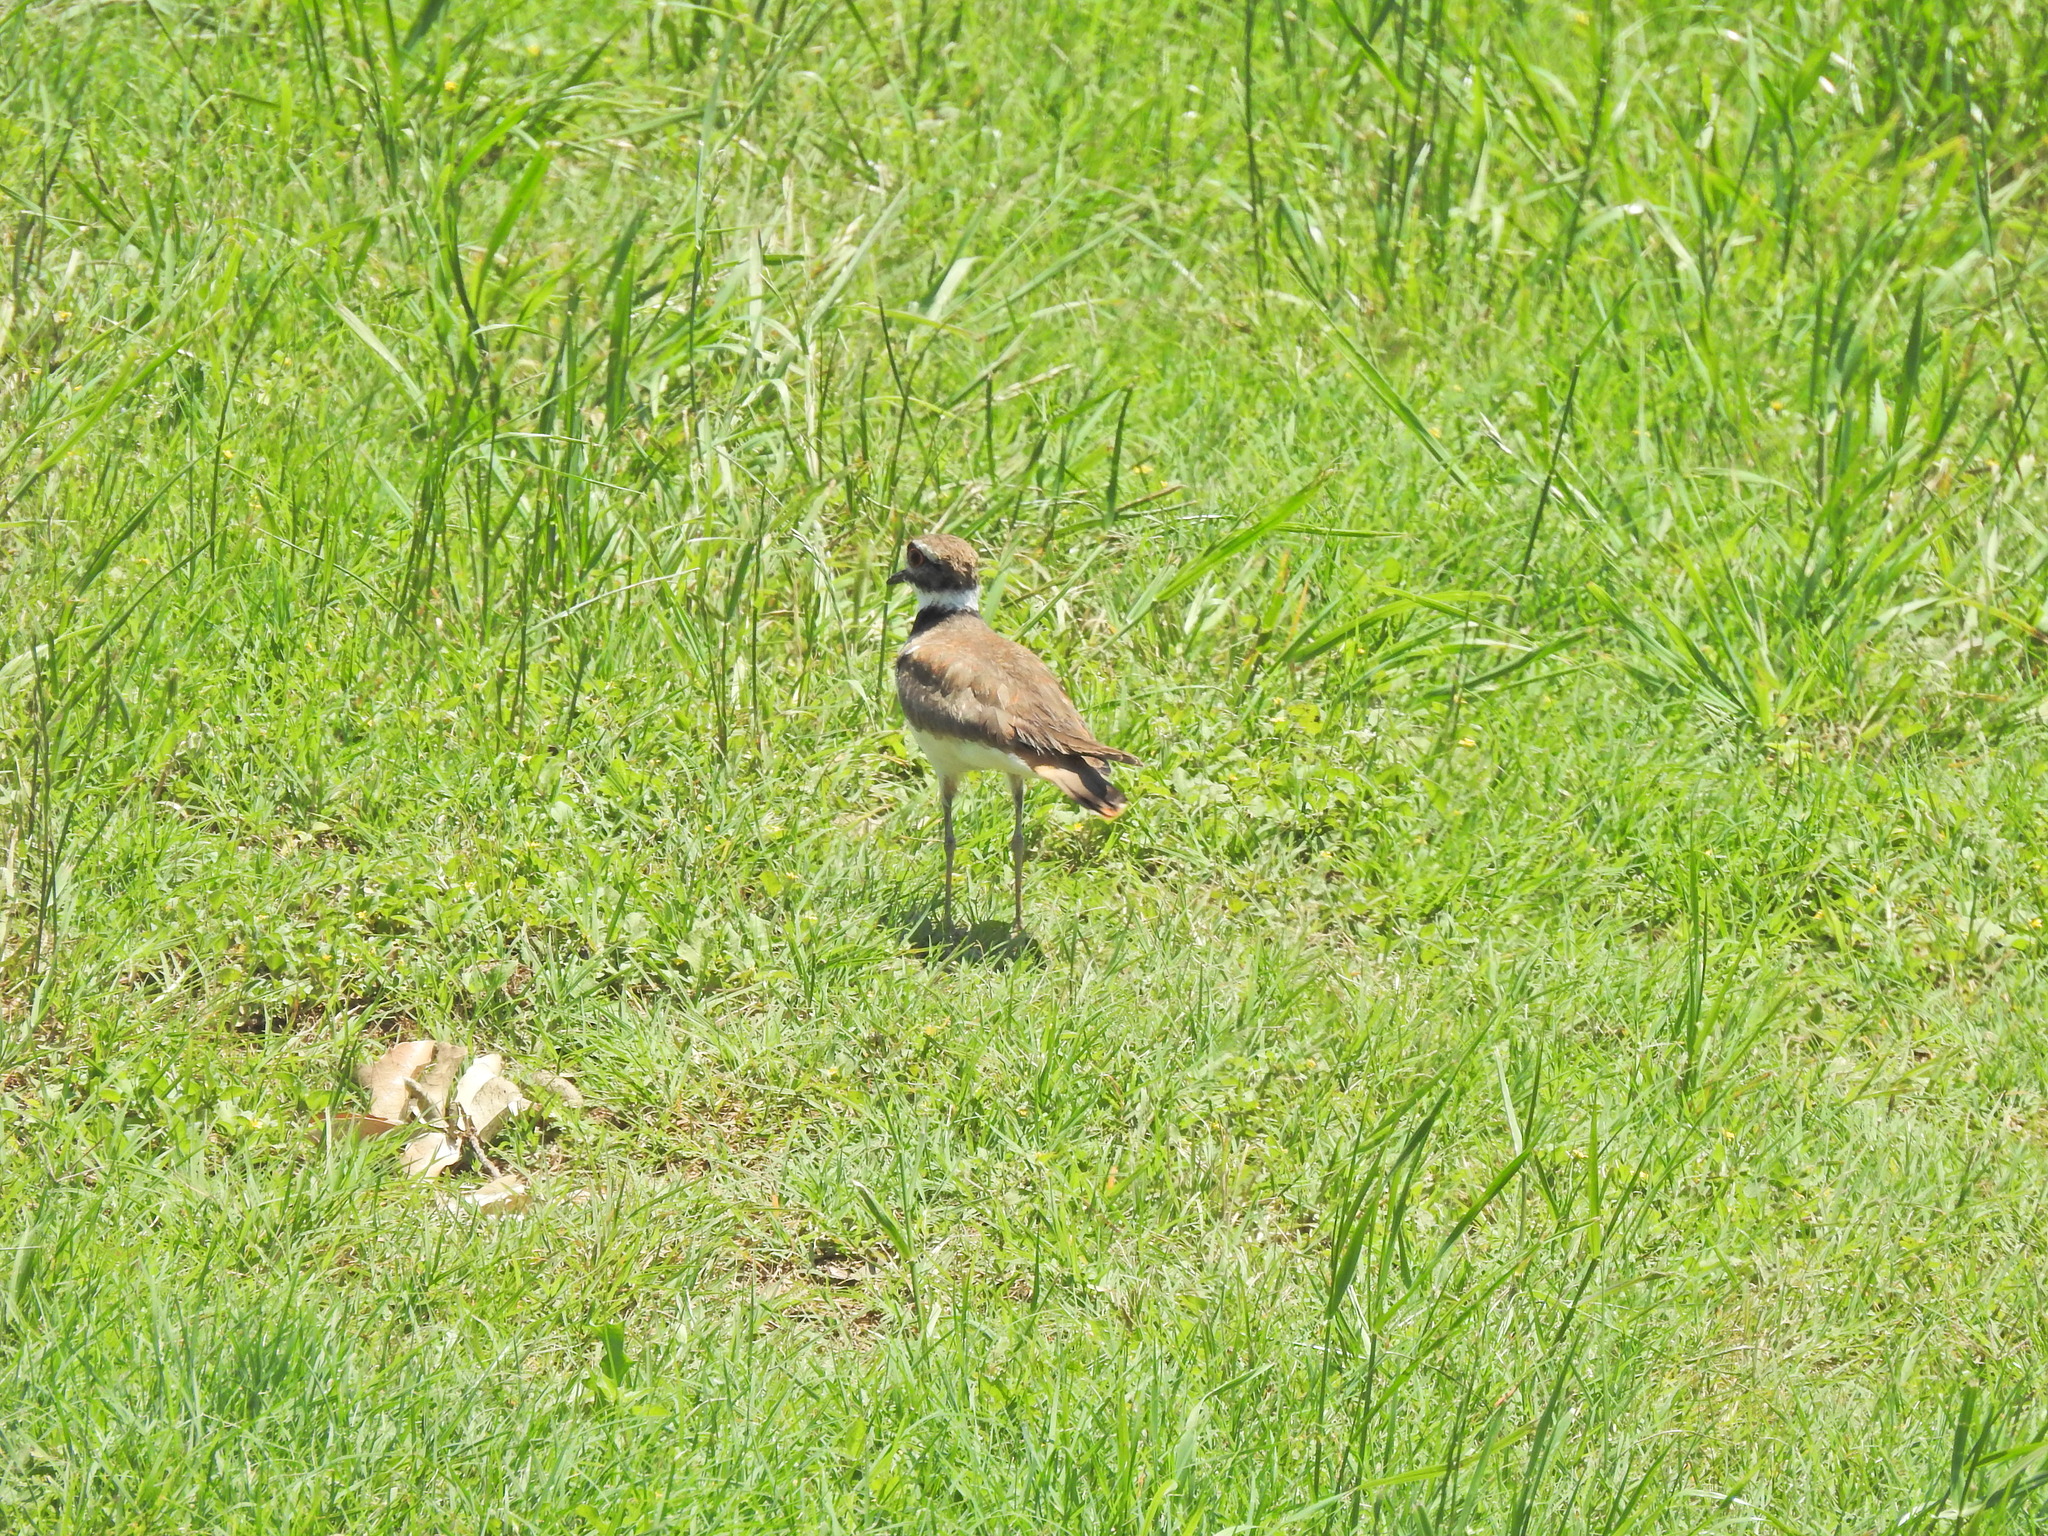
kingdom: Animalia
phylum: Chordata
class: Aves
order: Charadriiformes
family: Charadriidae
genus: Charadrius
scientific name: Charadrius vociferus
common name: Killdeer
